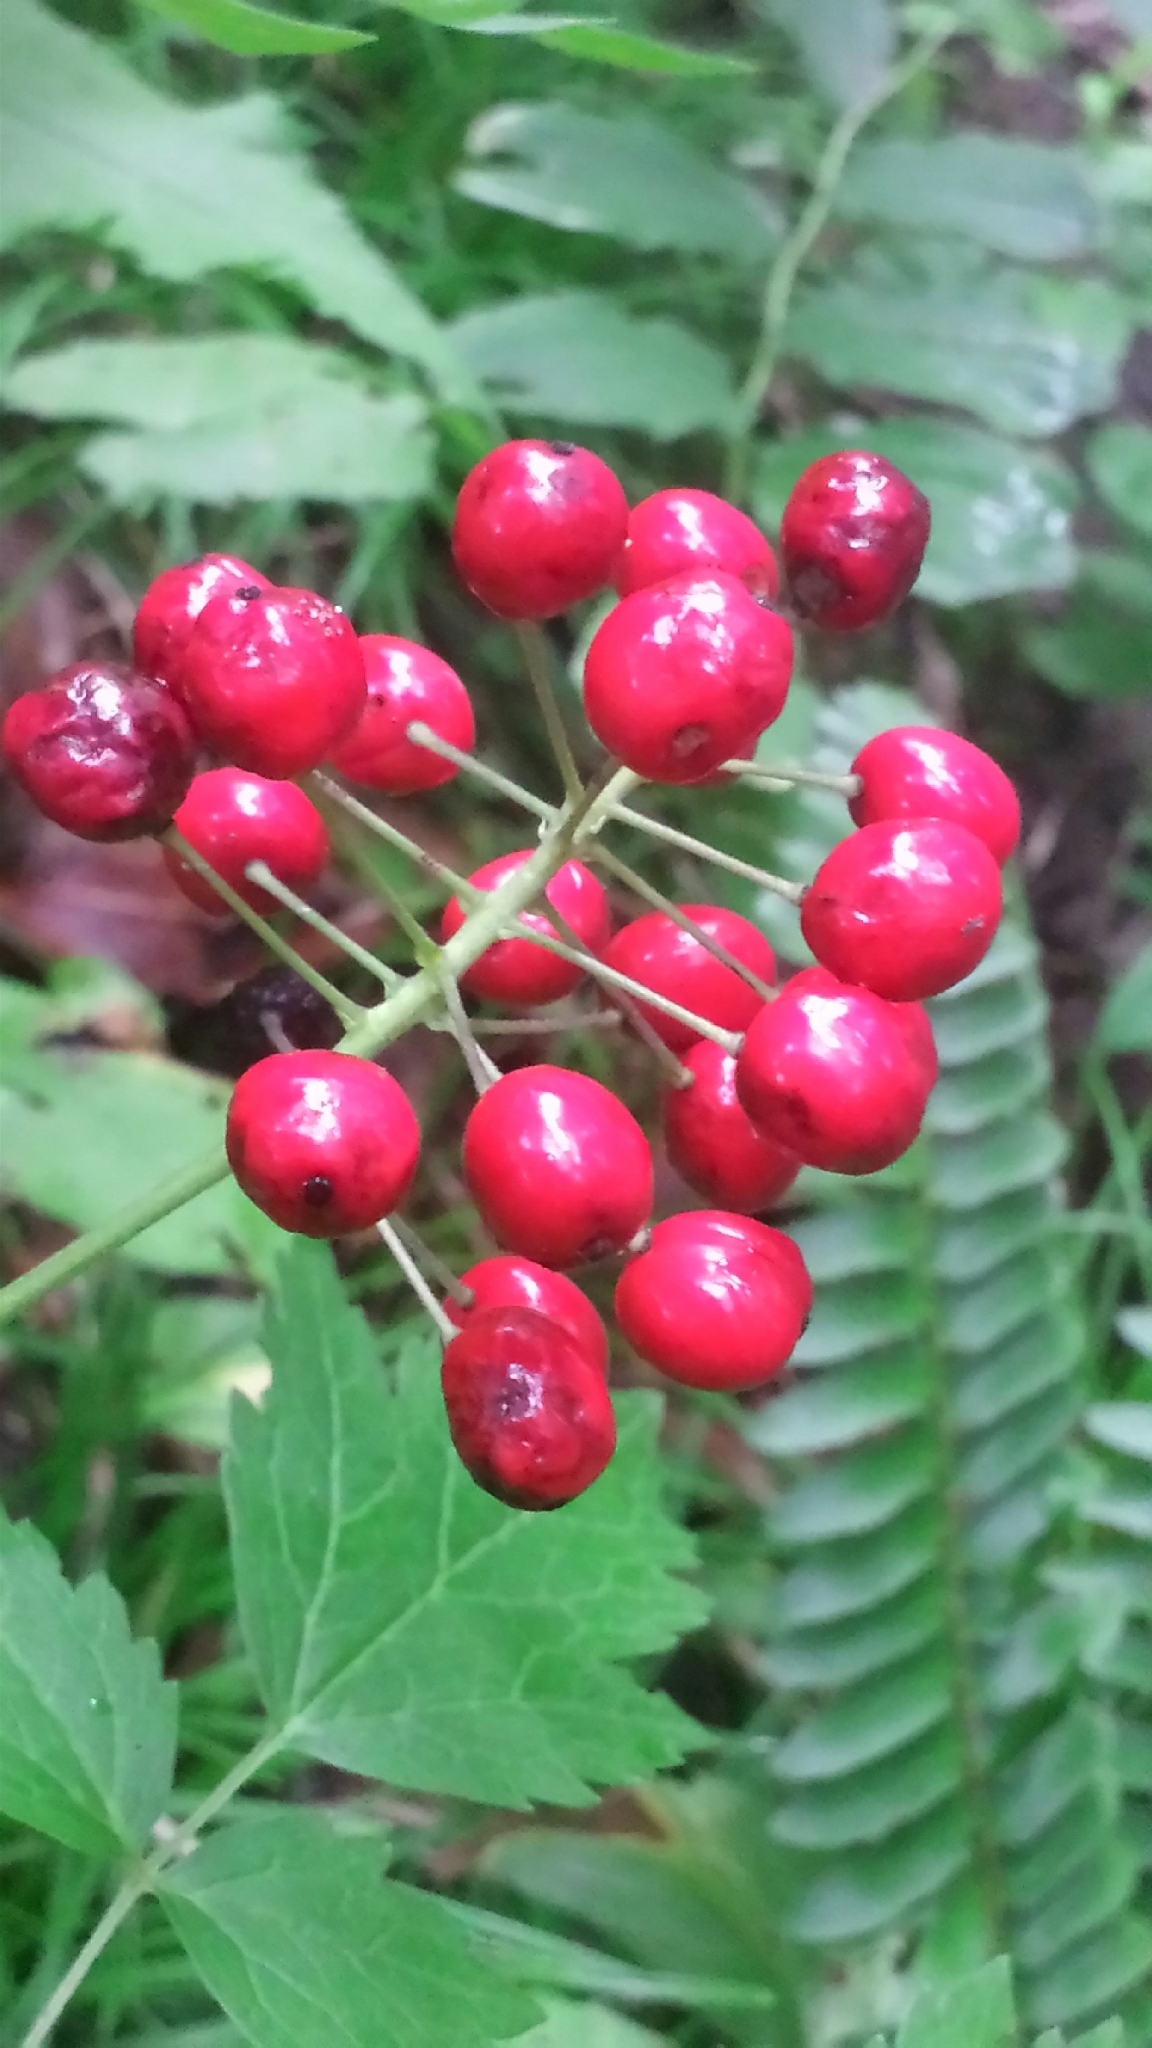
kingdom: Plantae
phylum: Tracheophyta
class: Magnoliopsida
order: Ranunculales
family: Ranunculaceae
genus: Actaea
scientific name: Actaea rubra
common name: Red baneberry
